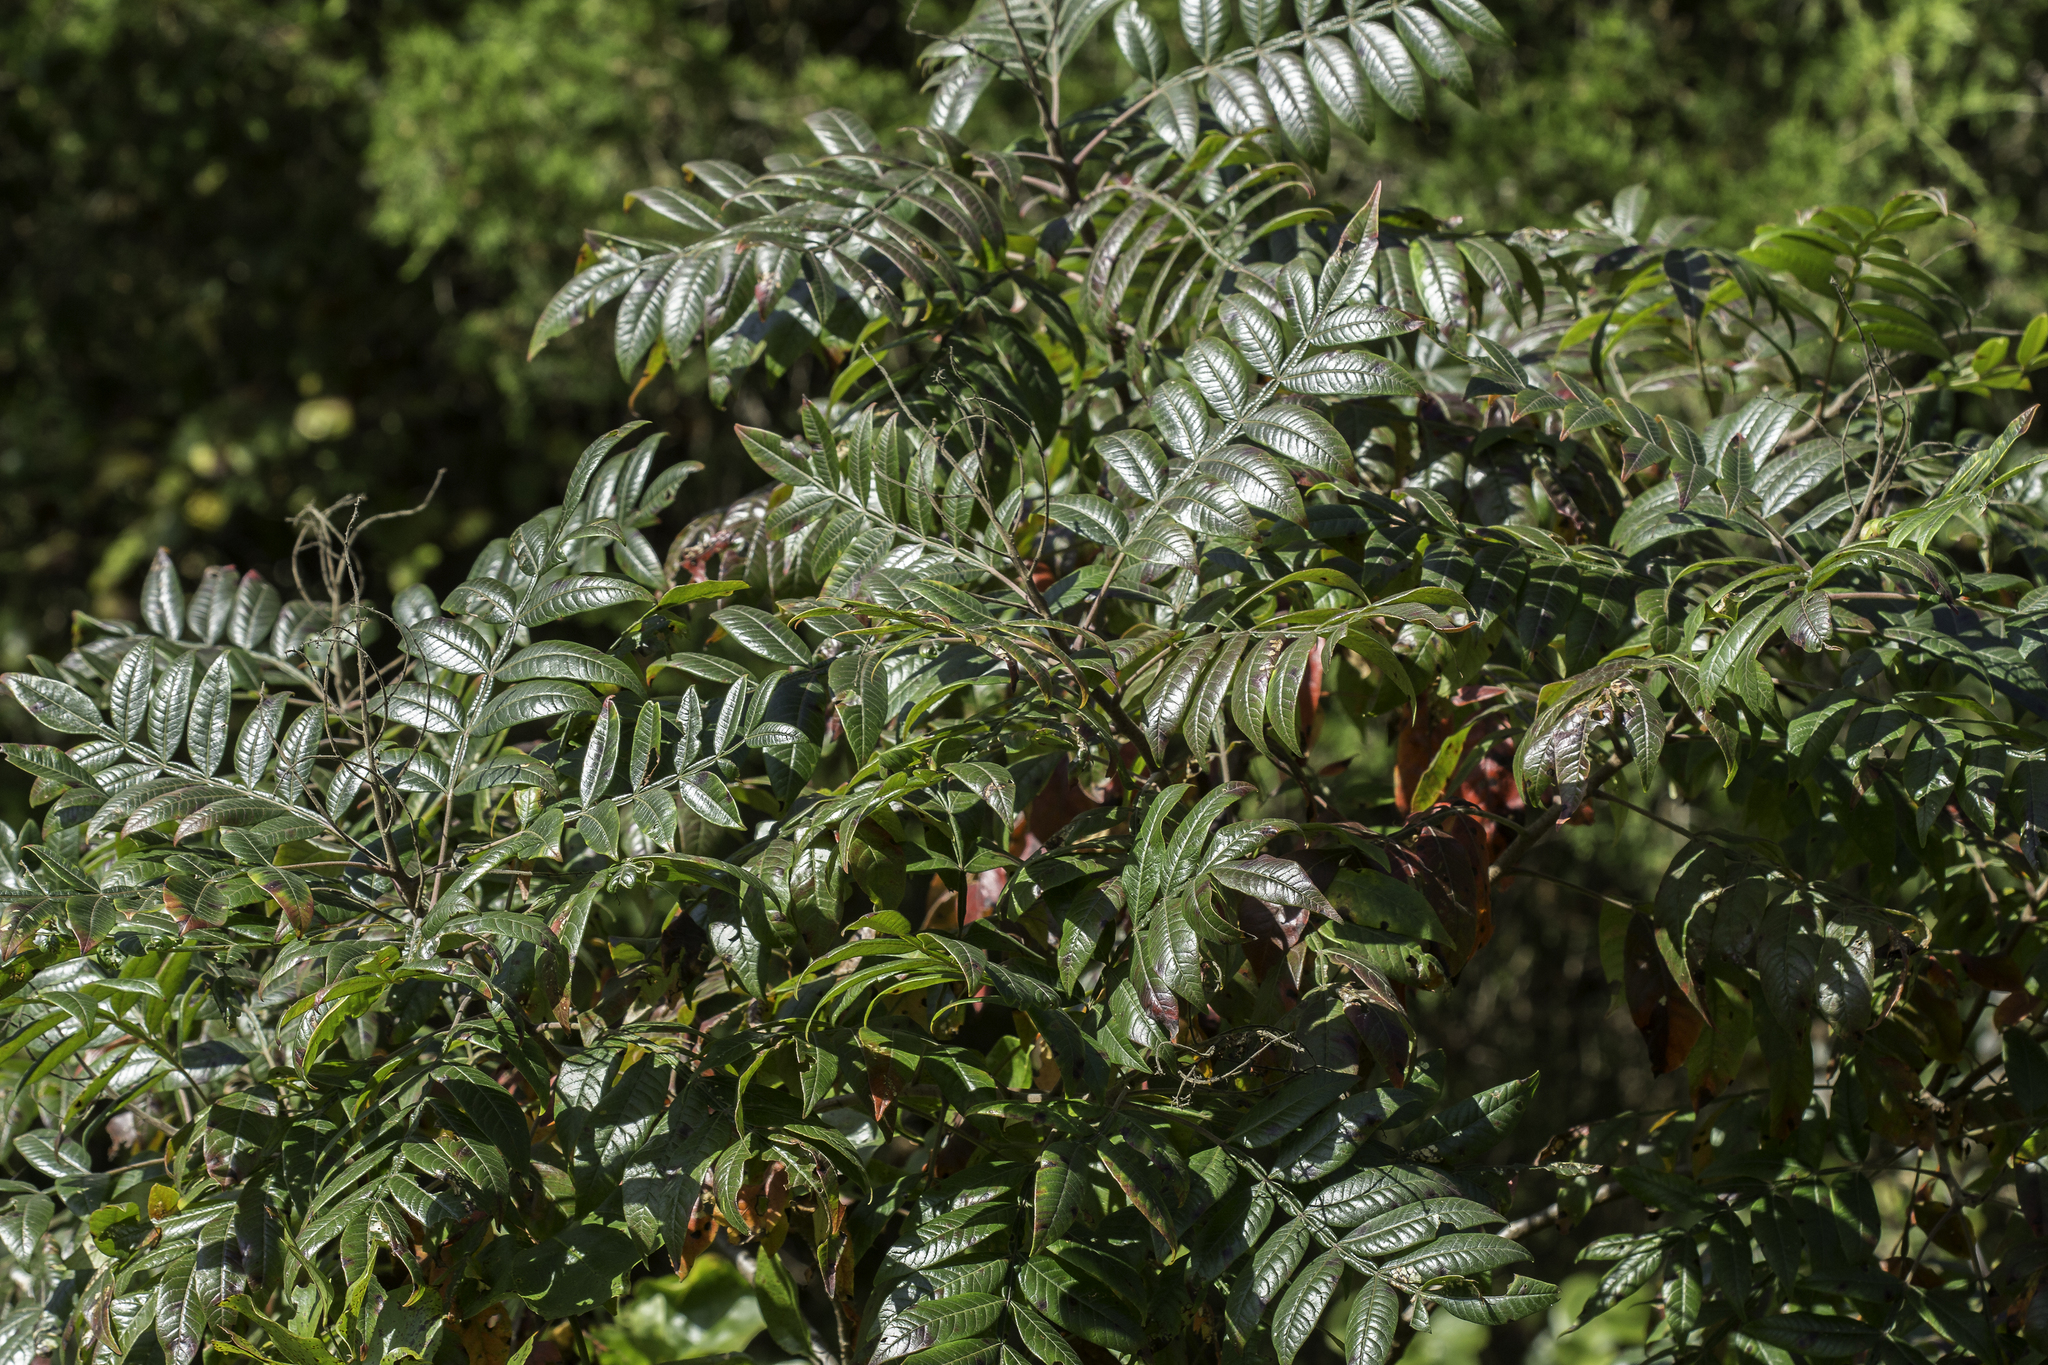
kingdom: Plantae
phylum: Tracheophyta
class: Magnoliopsida
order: Sapindales
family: Anacardiaceae
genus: Rhus
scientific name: Rhus copallina
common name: Shining sumac
